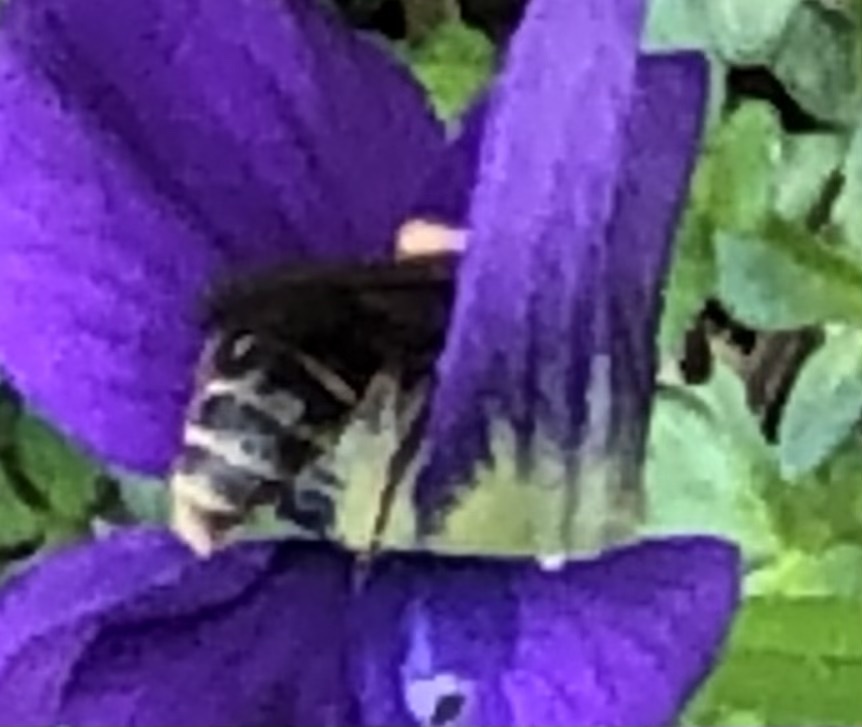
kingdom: Animalia
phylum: Arthropoda
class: Insecta
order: Hymenoptera
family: Andrenidae
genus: Andrena
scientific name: Andrena violae
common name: Violet miner
